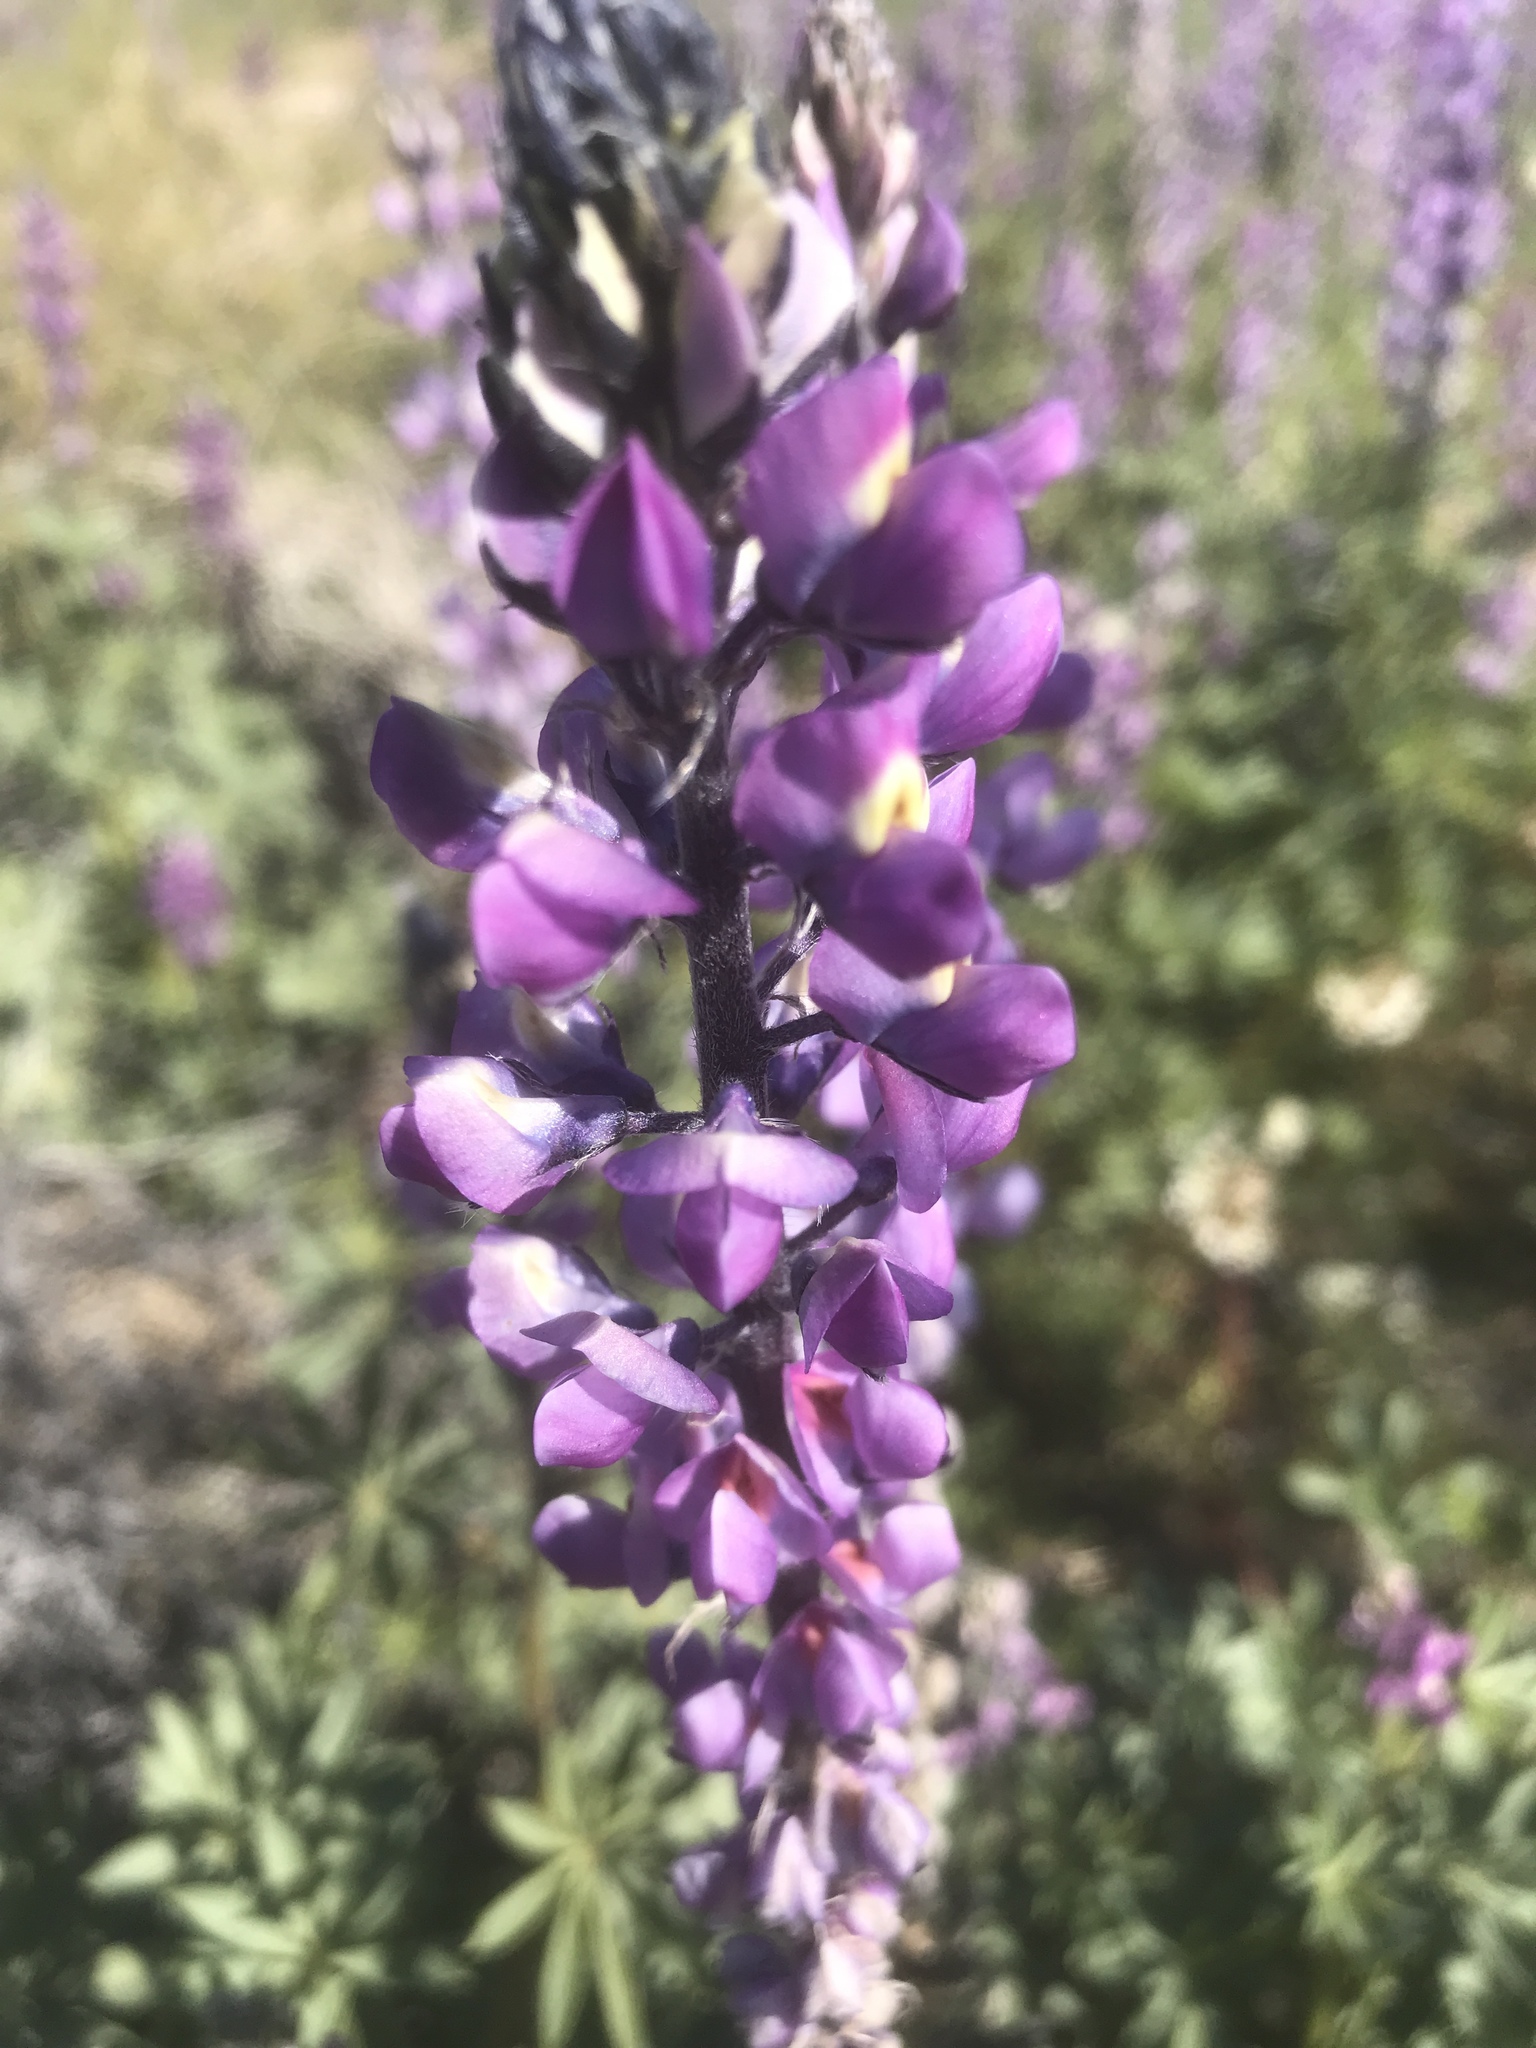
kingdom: Plantae
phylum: Tracheophyta
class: Magnoliopsida
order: Fabales
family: Fabaceae
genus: Lupinus
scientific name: Lupinus arizonicus
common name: Arizona lupine
